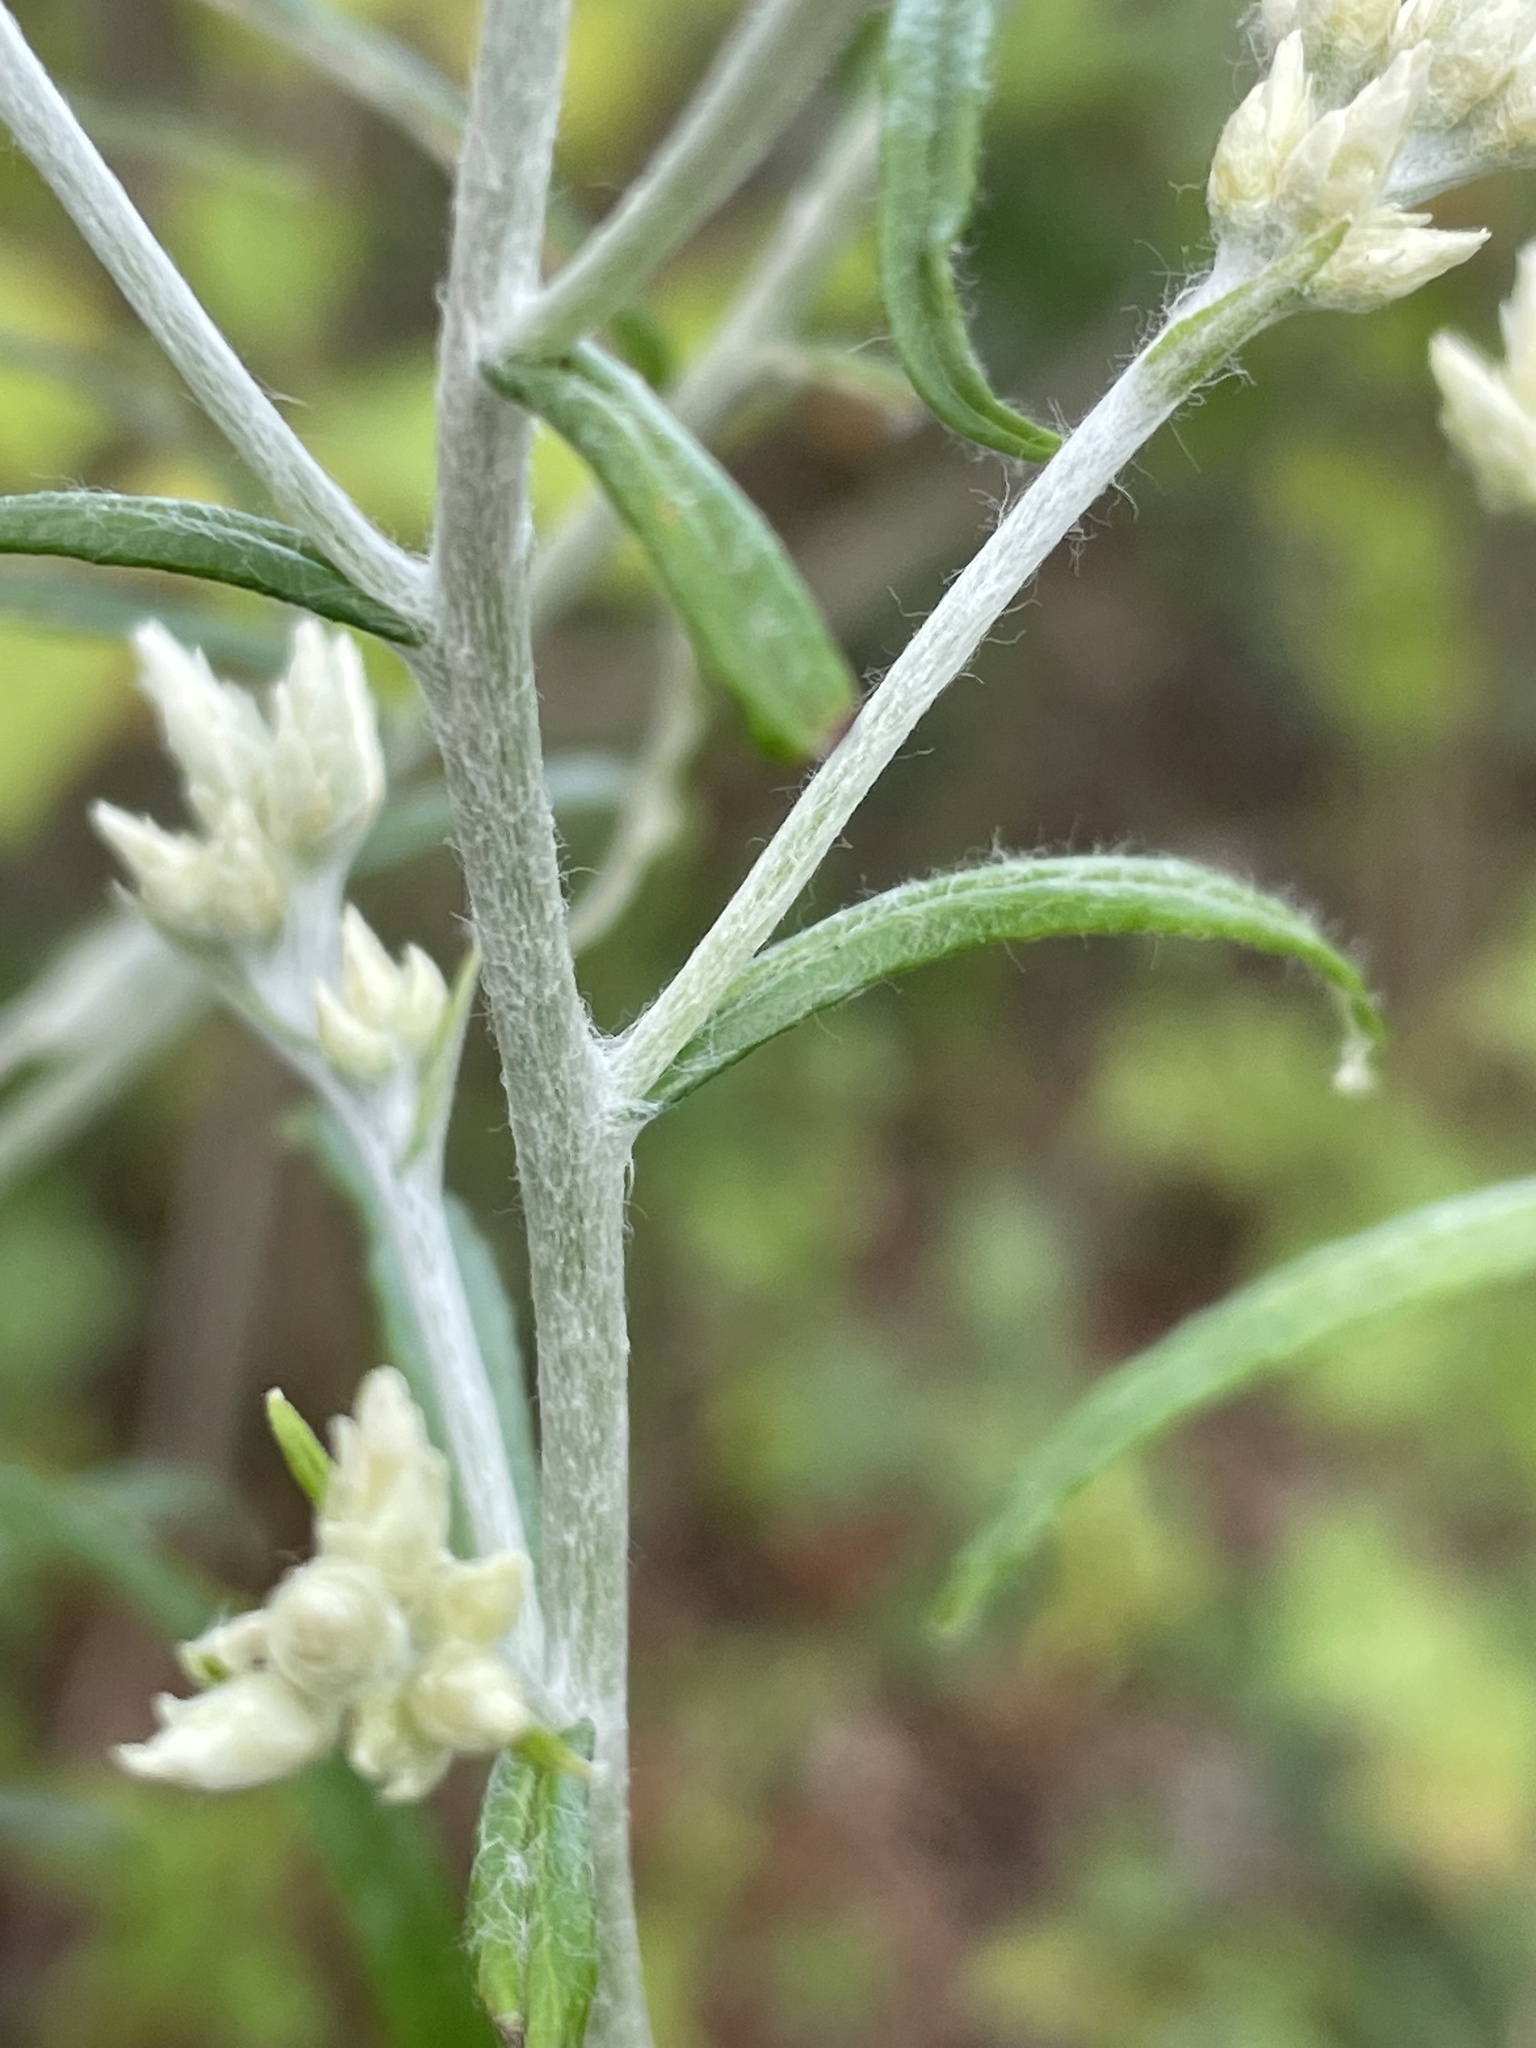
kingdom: Plantae
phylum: Tracheophyta
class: Magnoliopsida
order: Asterales
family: Asteraceae
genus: Pseudognaphalium
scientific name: Pseudognaphalium obtusifolium
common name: Eastern rabbit-tobacco
